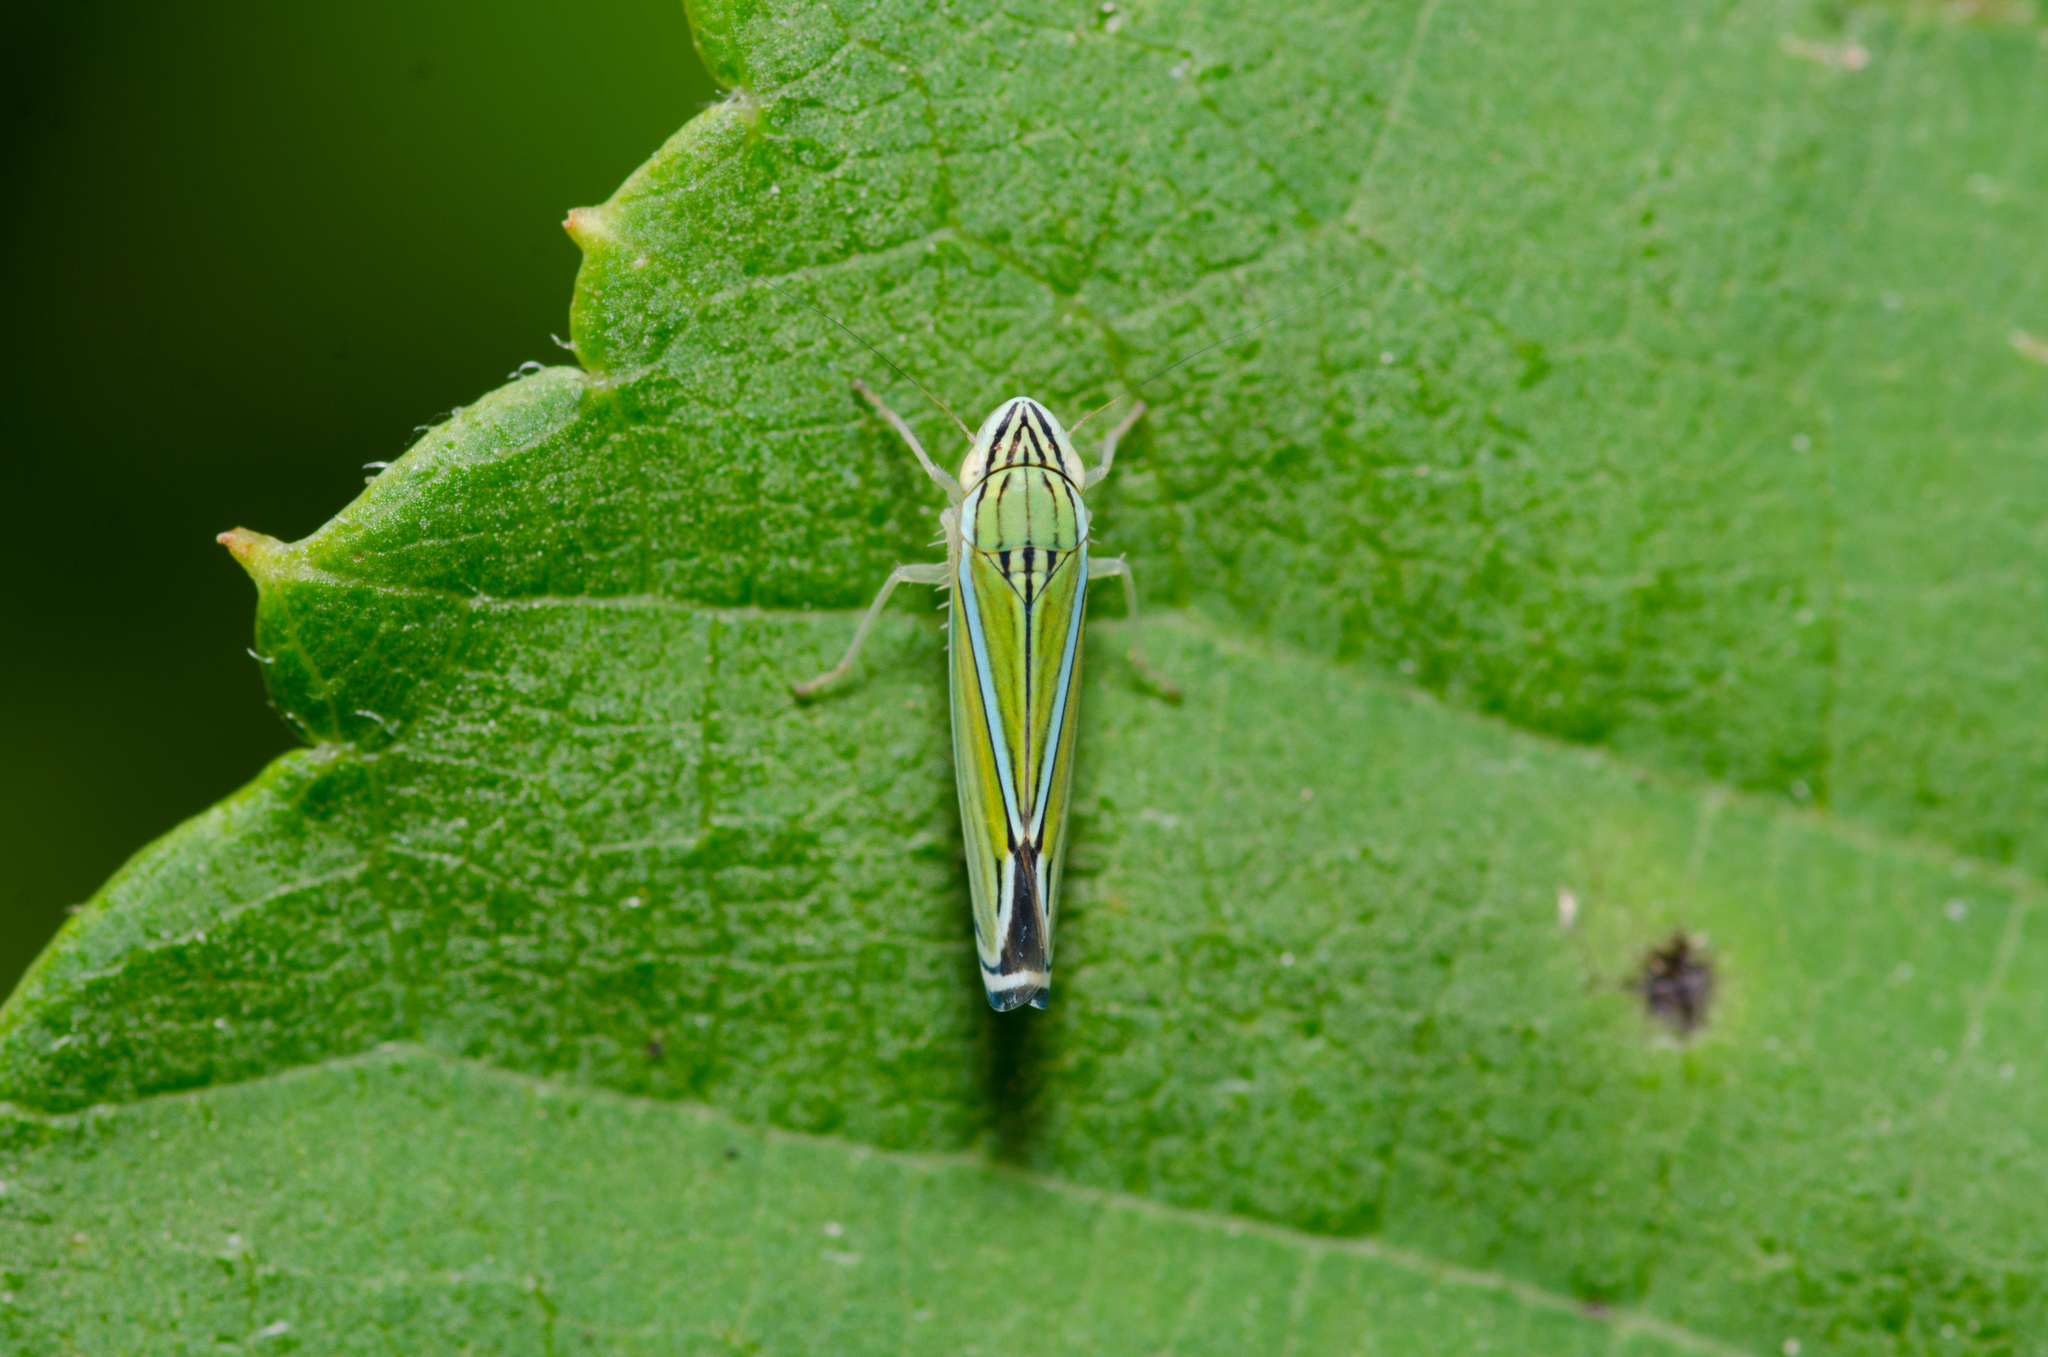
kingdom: Animalia
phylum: Arthropoda
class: Insecta
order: Hemiptera
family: Cicadellidae
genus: Sibovia
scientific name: Sibovia occatoria
